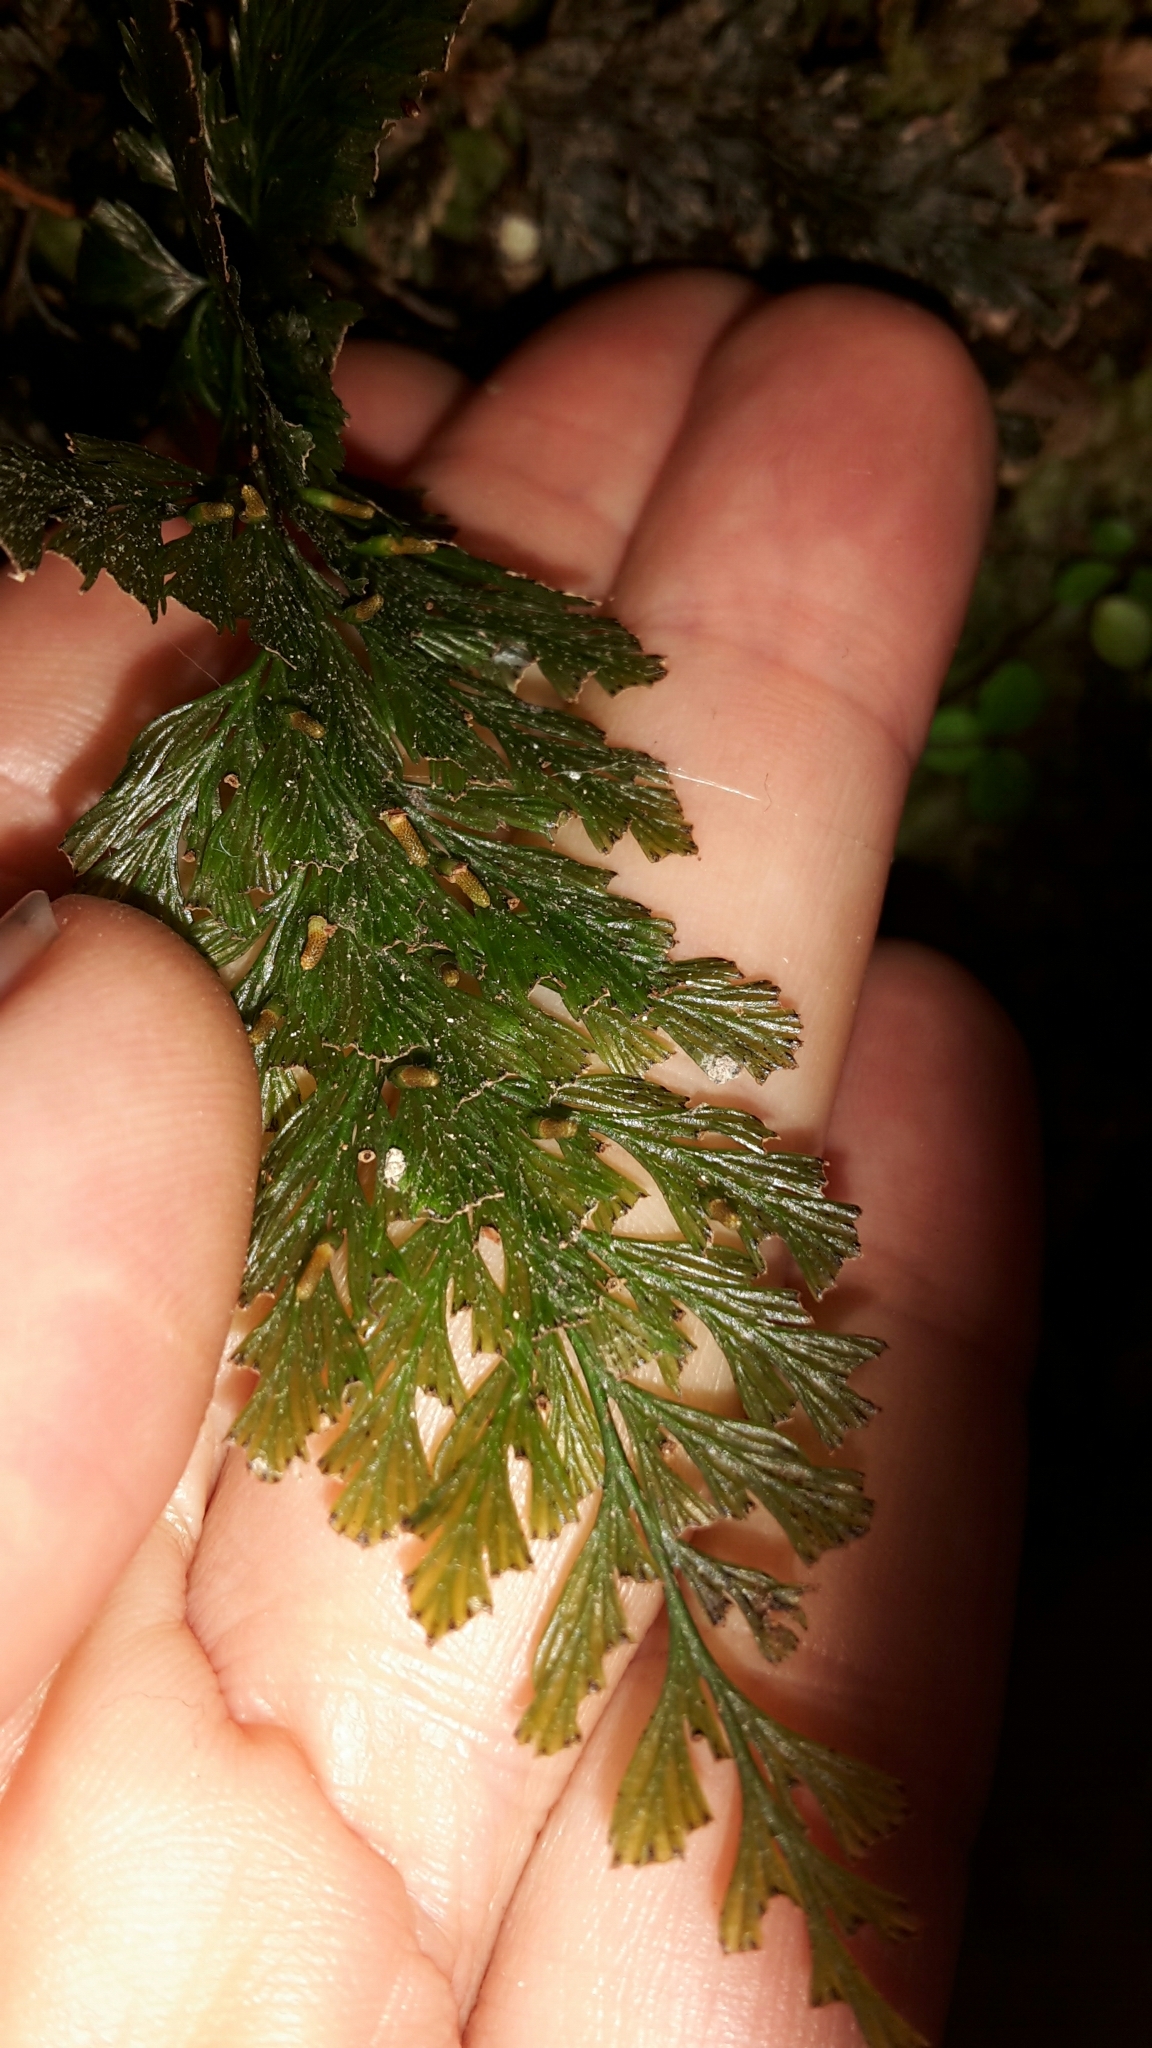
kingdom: Plantae
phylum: Tracheophyta
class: Polypodiopsida
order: Hymenophyllales
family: Hymenophyllaceae
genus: Abrodictyum
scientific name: Abrodictyum elongatum
